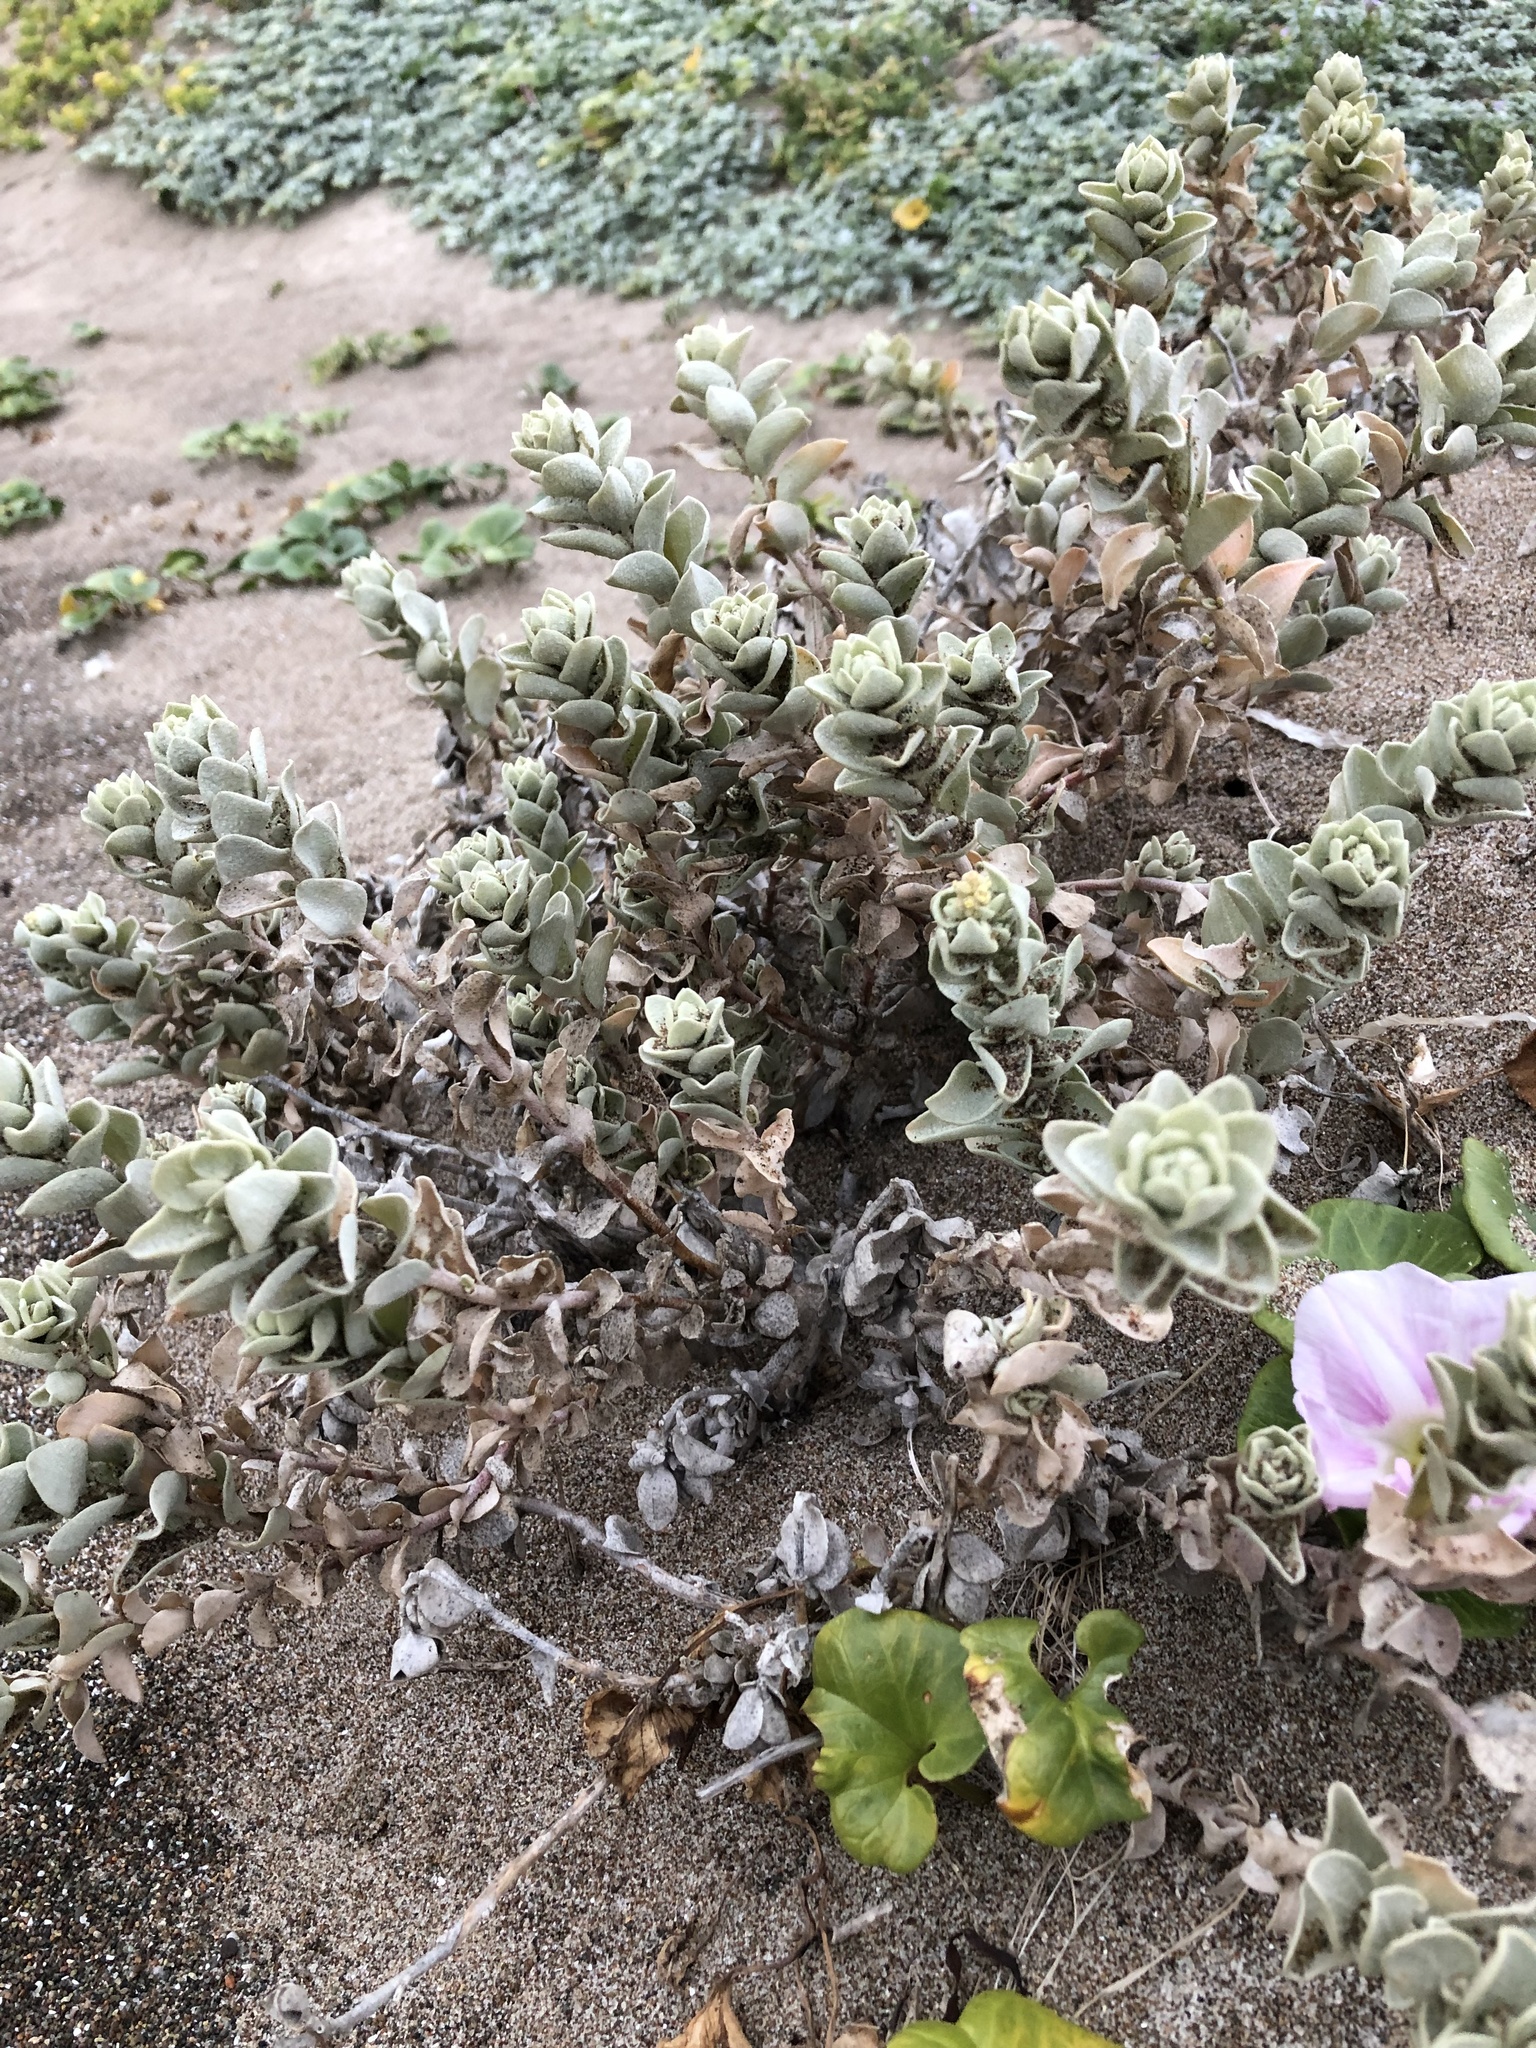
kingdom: Plantae
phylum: Tracheophyta
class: Magnoliopsida
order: Caryophyllales
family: Amaranthaceae
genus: Atriplex
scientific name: Atriplex leucophylla
